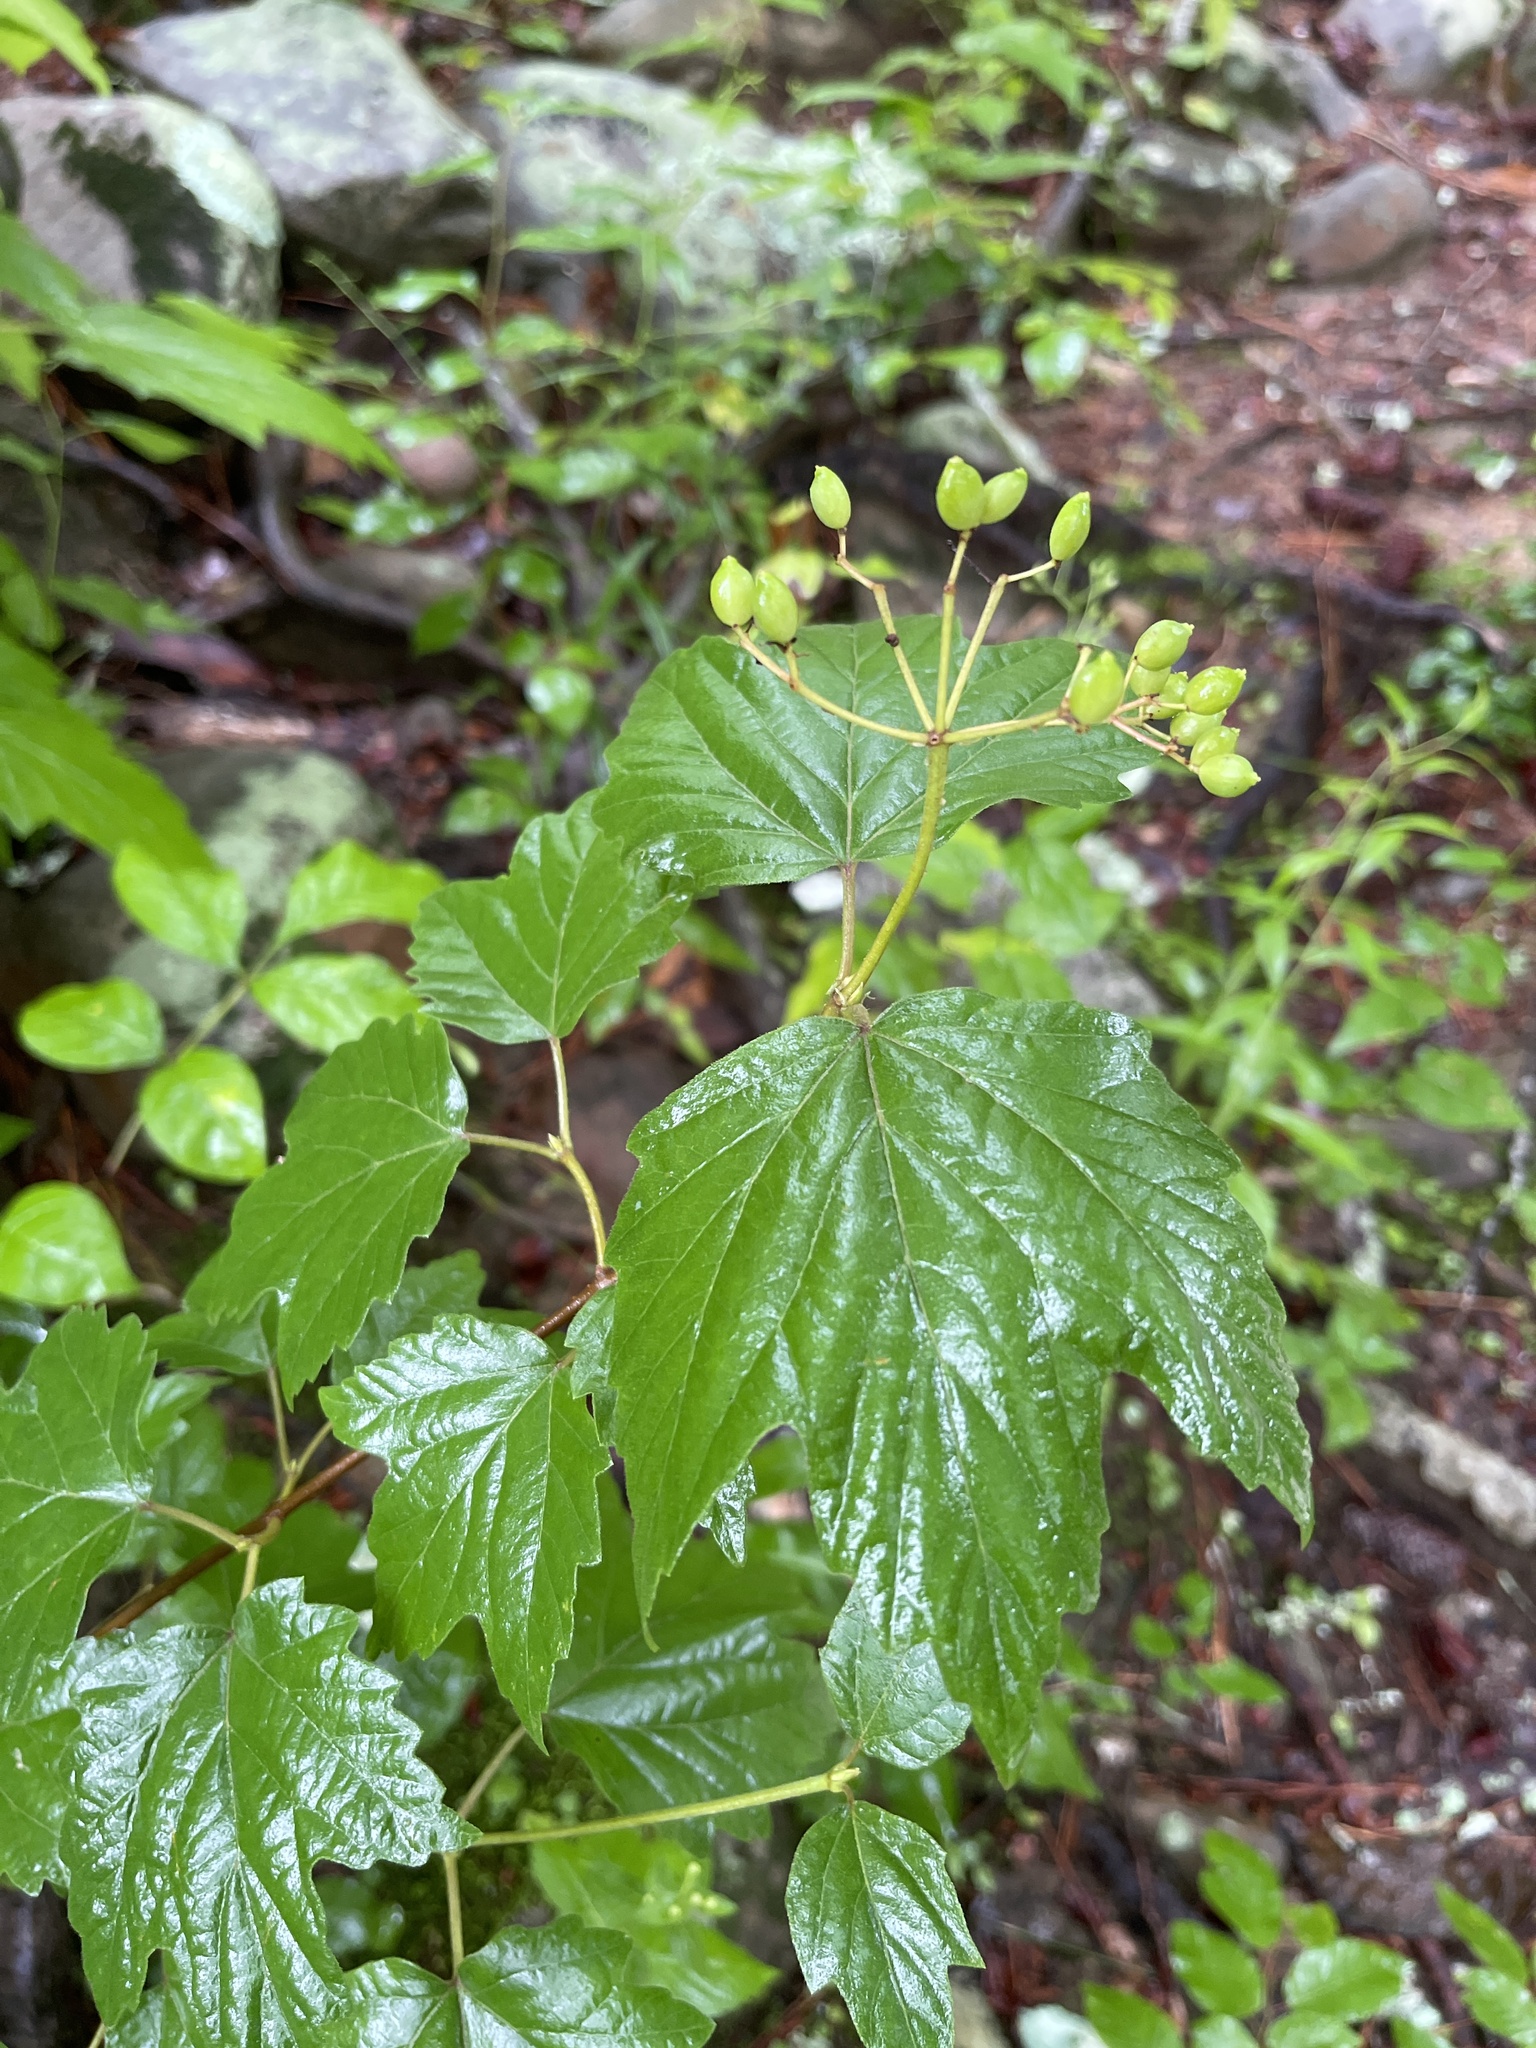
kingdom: Plantae
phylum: Tracheophyta
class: Magnoliopsida
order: Dipsacales
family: Viburnaceae
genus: Viburnum
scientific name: Viburnum acerifolium
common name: Dockmackie
